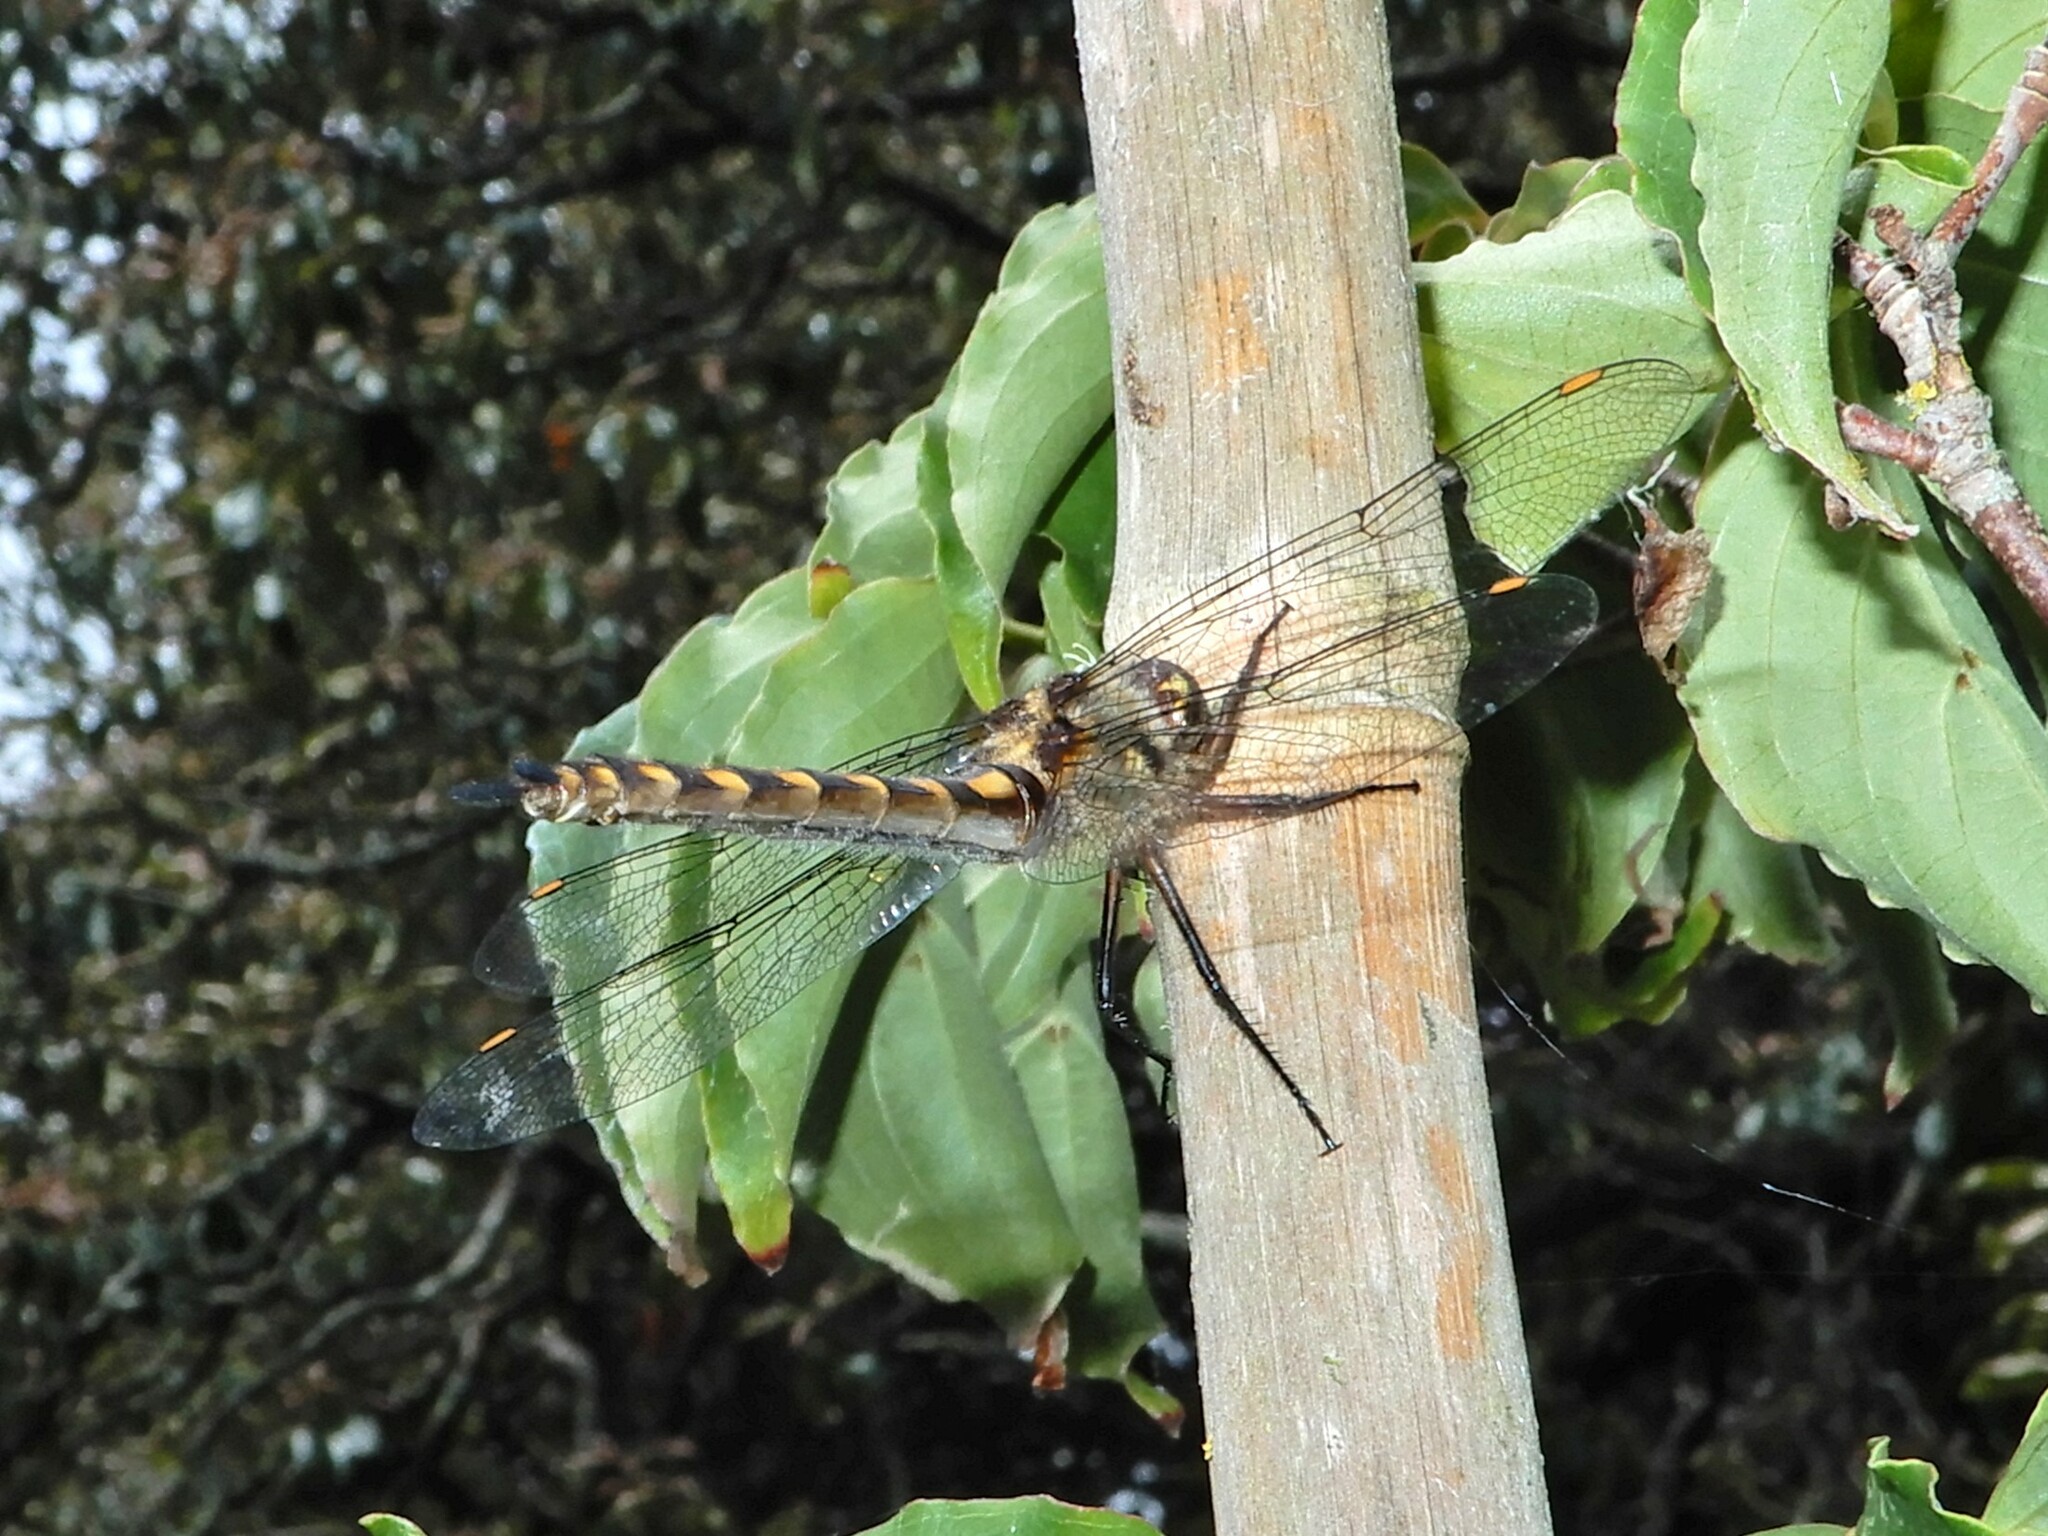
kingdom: Animalia
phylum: Arthropoda
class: Insecta
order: Odonata
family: Corduliidae
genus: Procordulia
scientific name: Procordulia grayi
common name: Yellow spotted dragonfly
